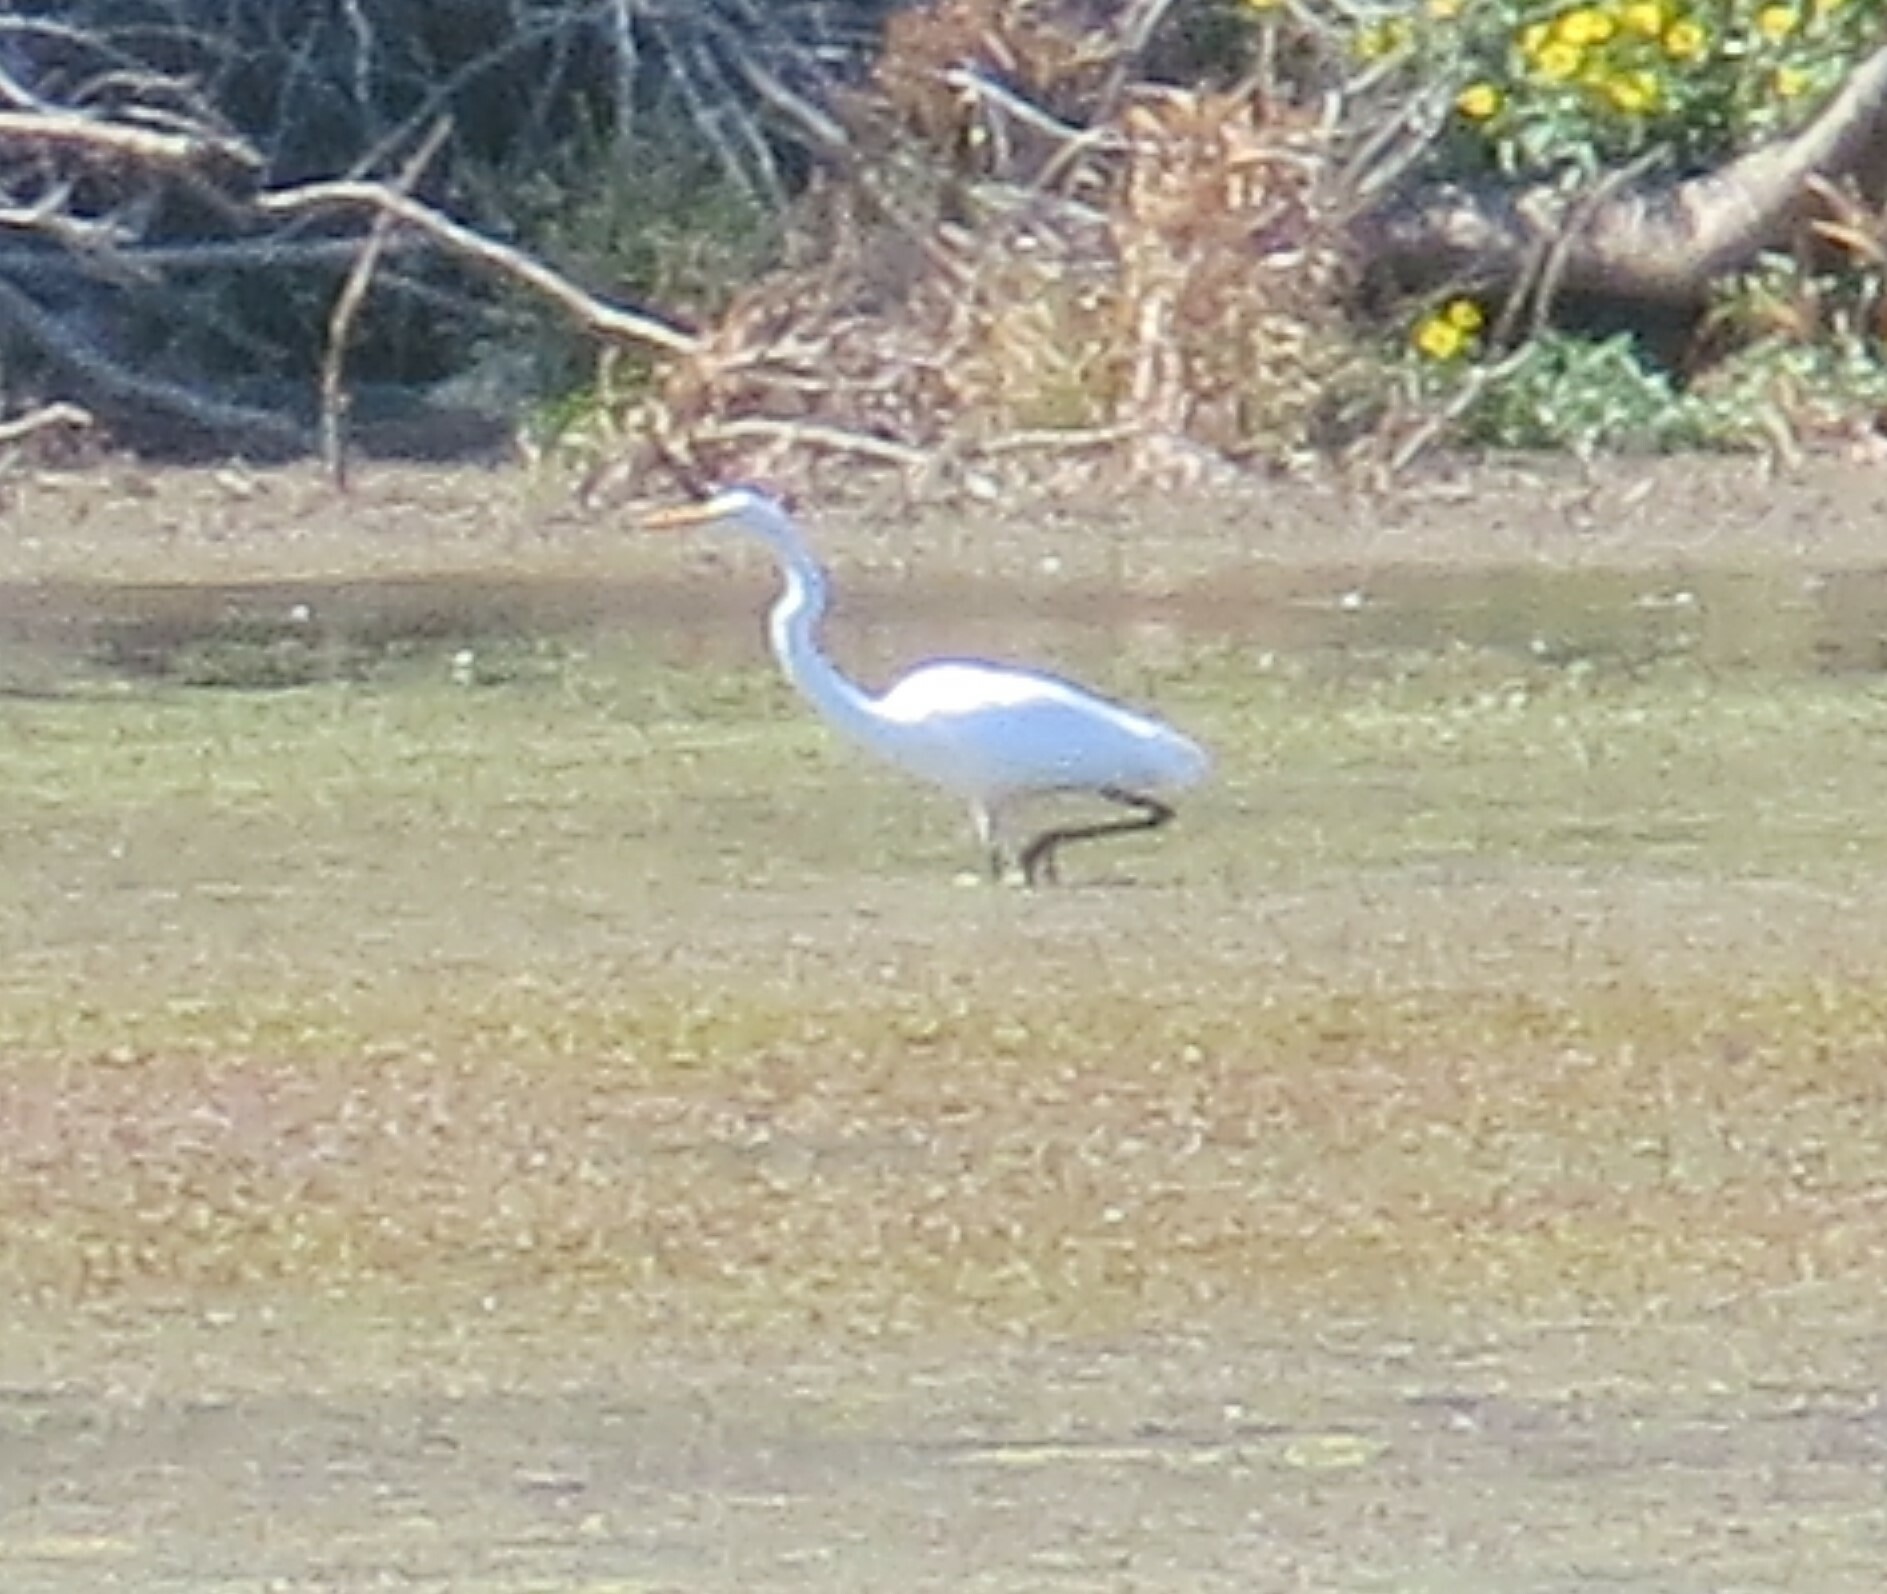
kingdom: Animalia
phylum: Chordata
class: Aves
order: Pelecaniformes
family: Ardeidae
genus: Ardea
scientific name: Ardea alba
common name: Great egret
